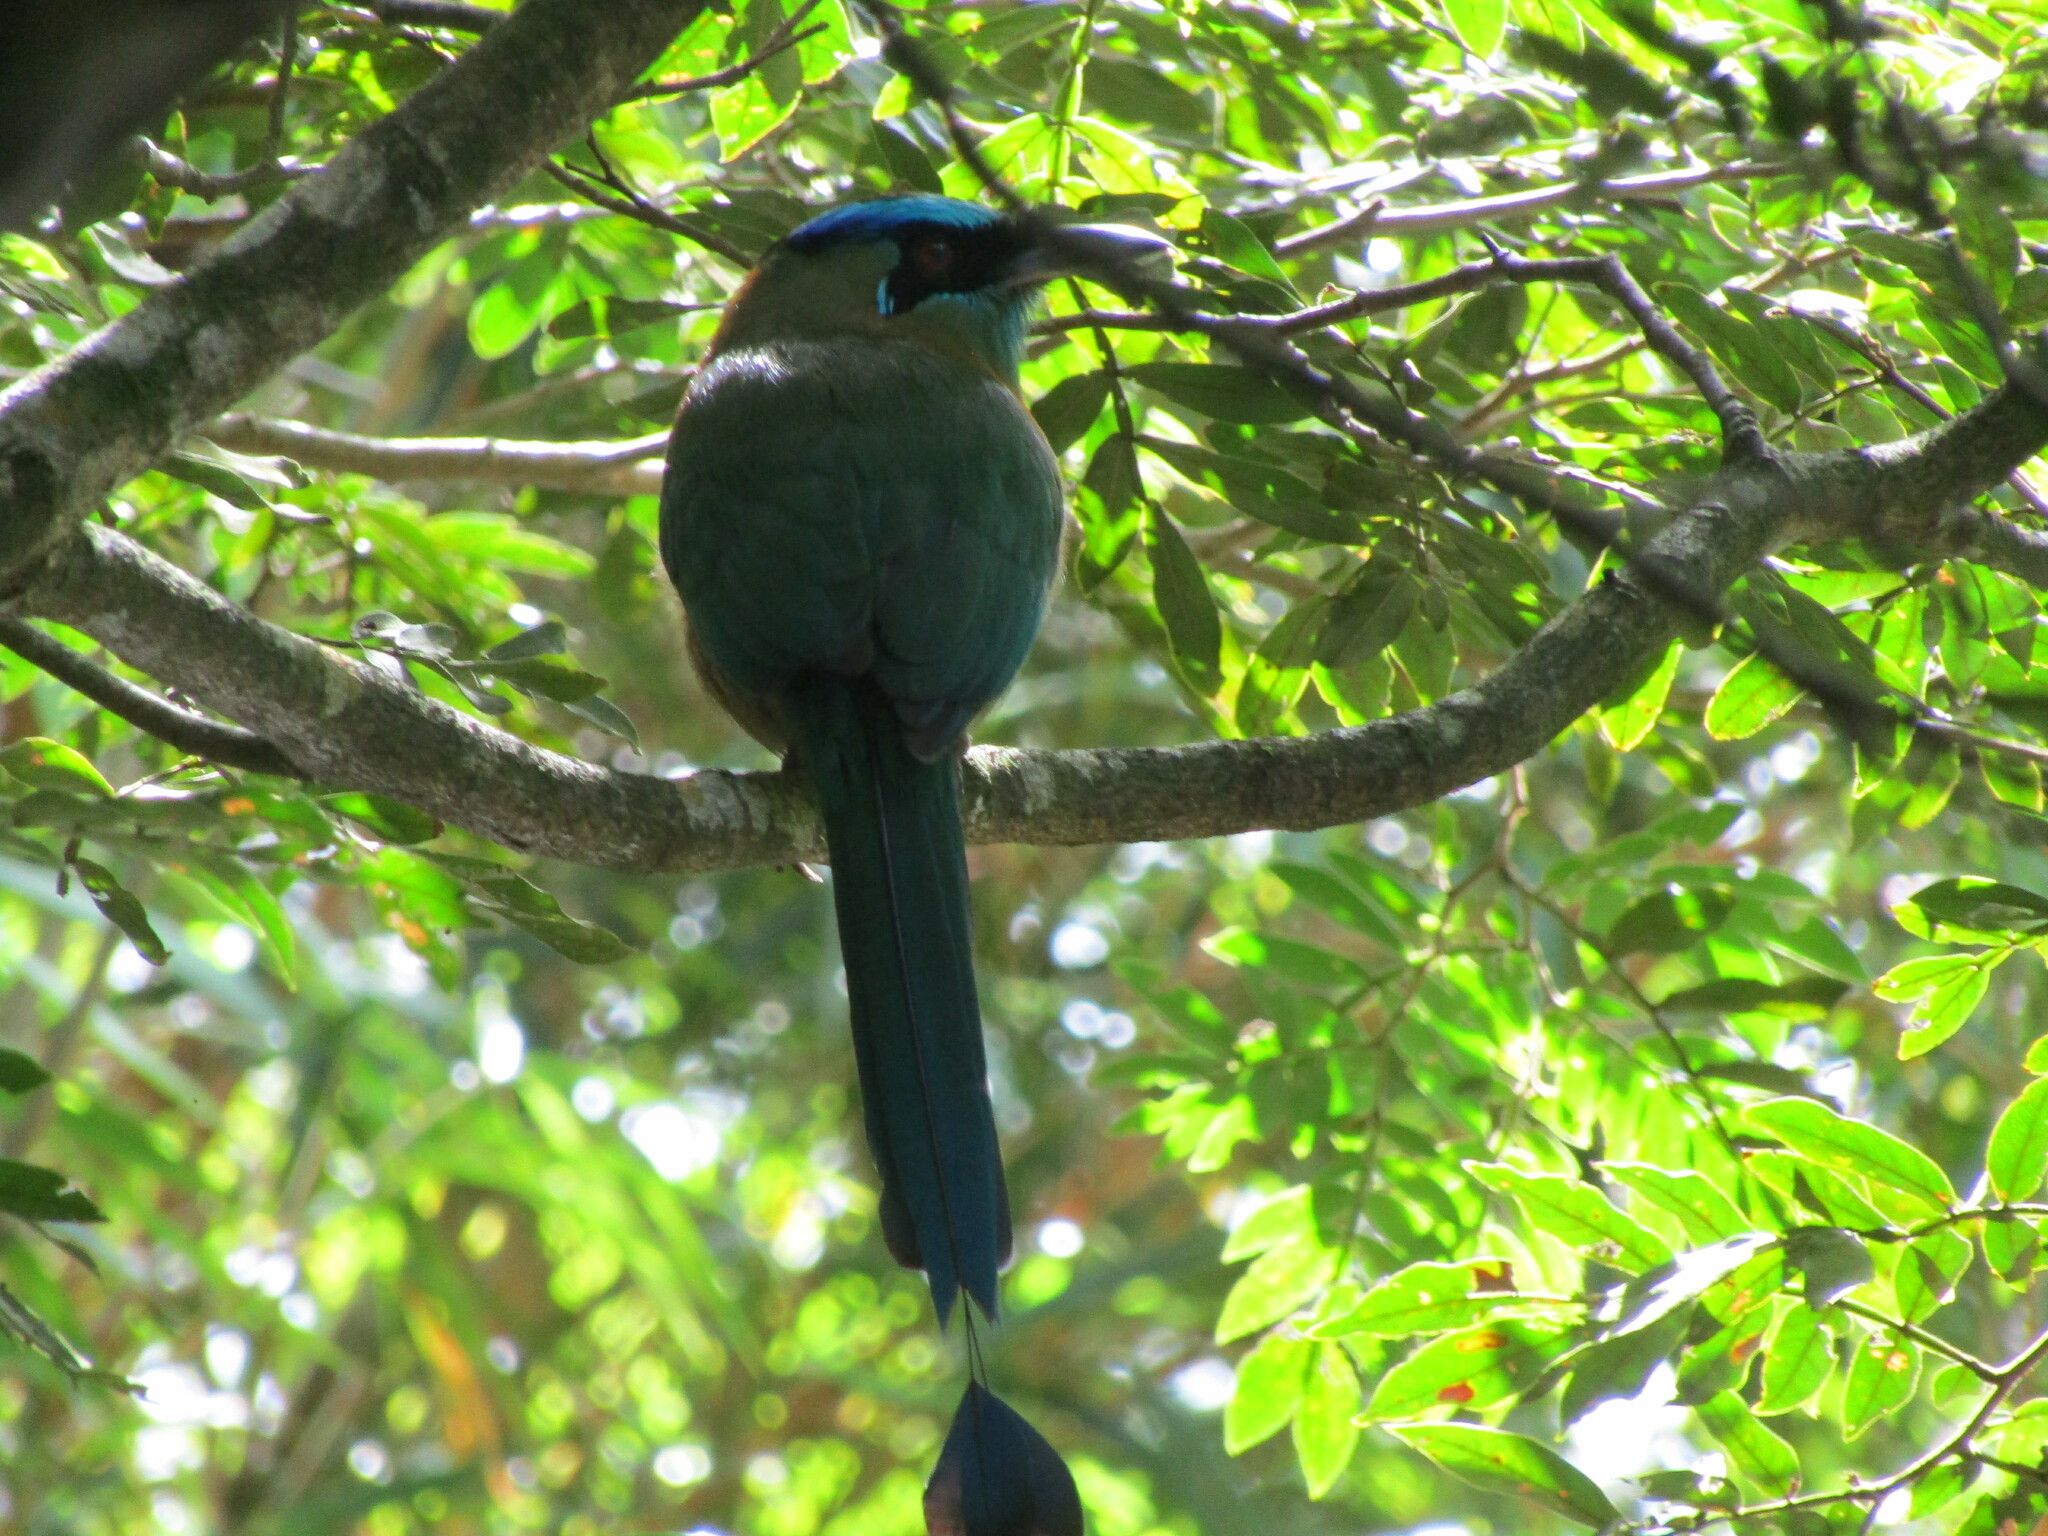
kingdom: Animalia
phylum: Chordata
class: Aves
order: Coraciiformes
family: Momotidae
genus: Momotus
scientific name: Momotus lessonii
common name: Lesson's motmot
